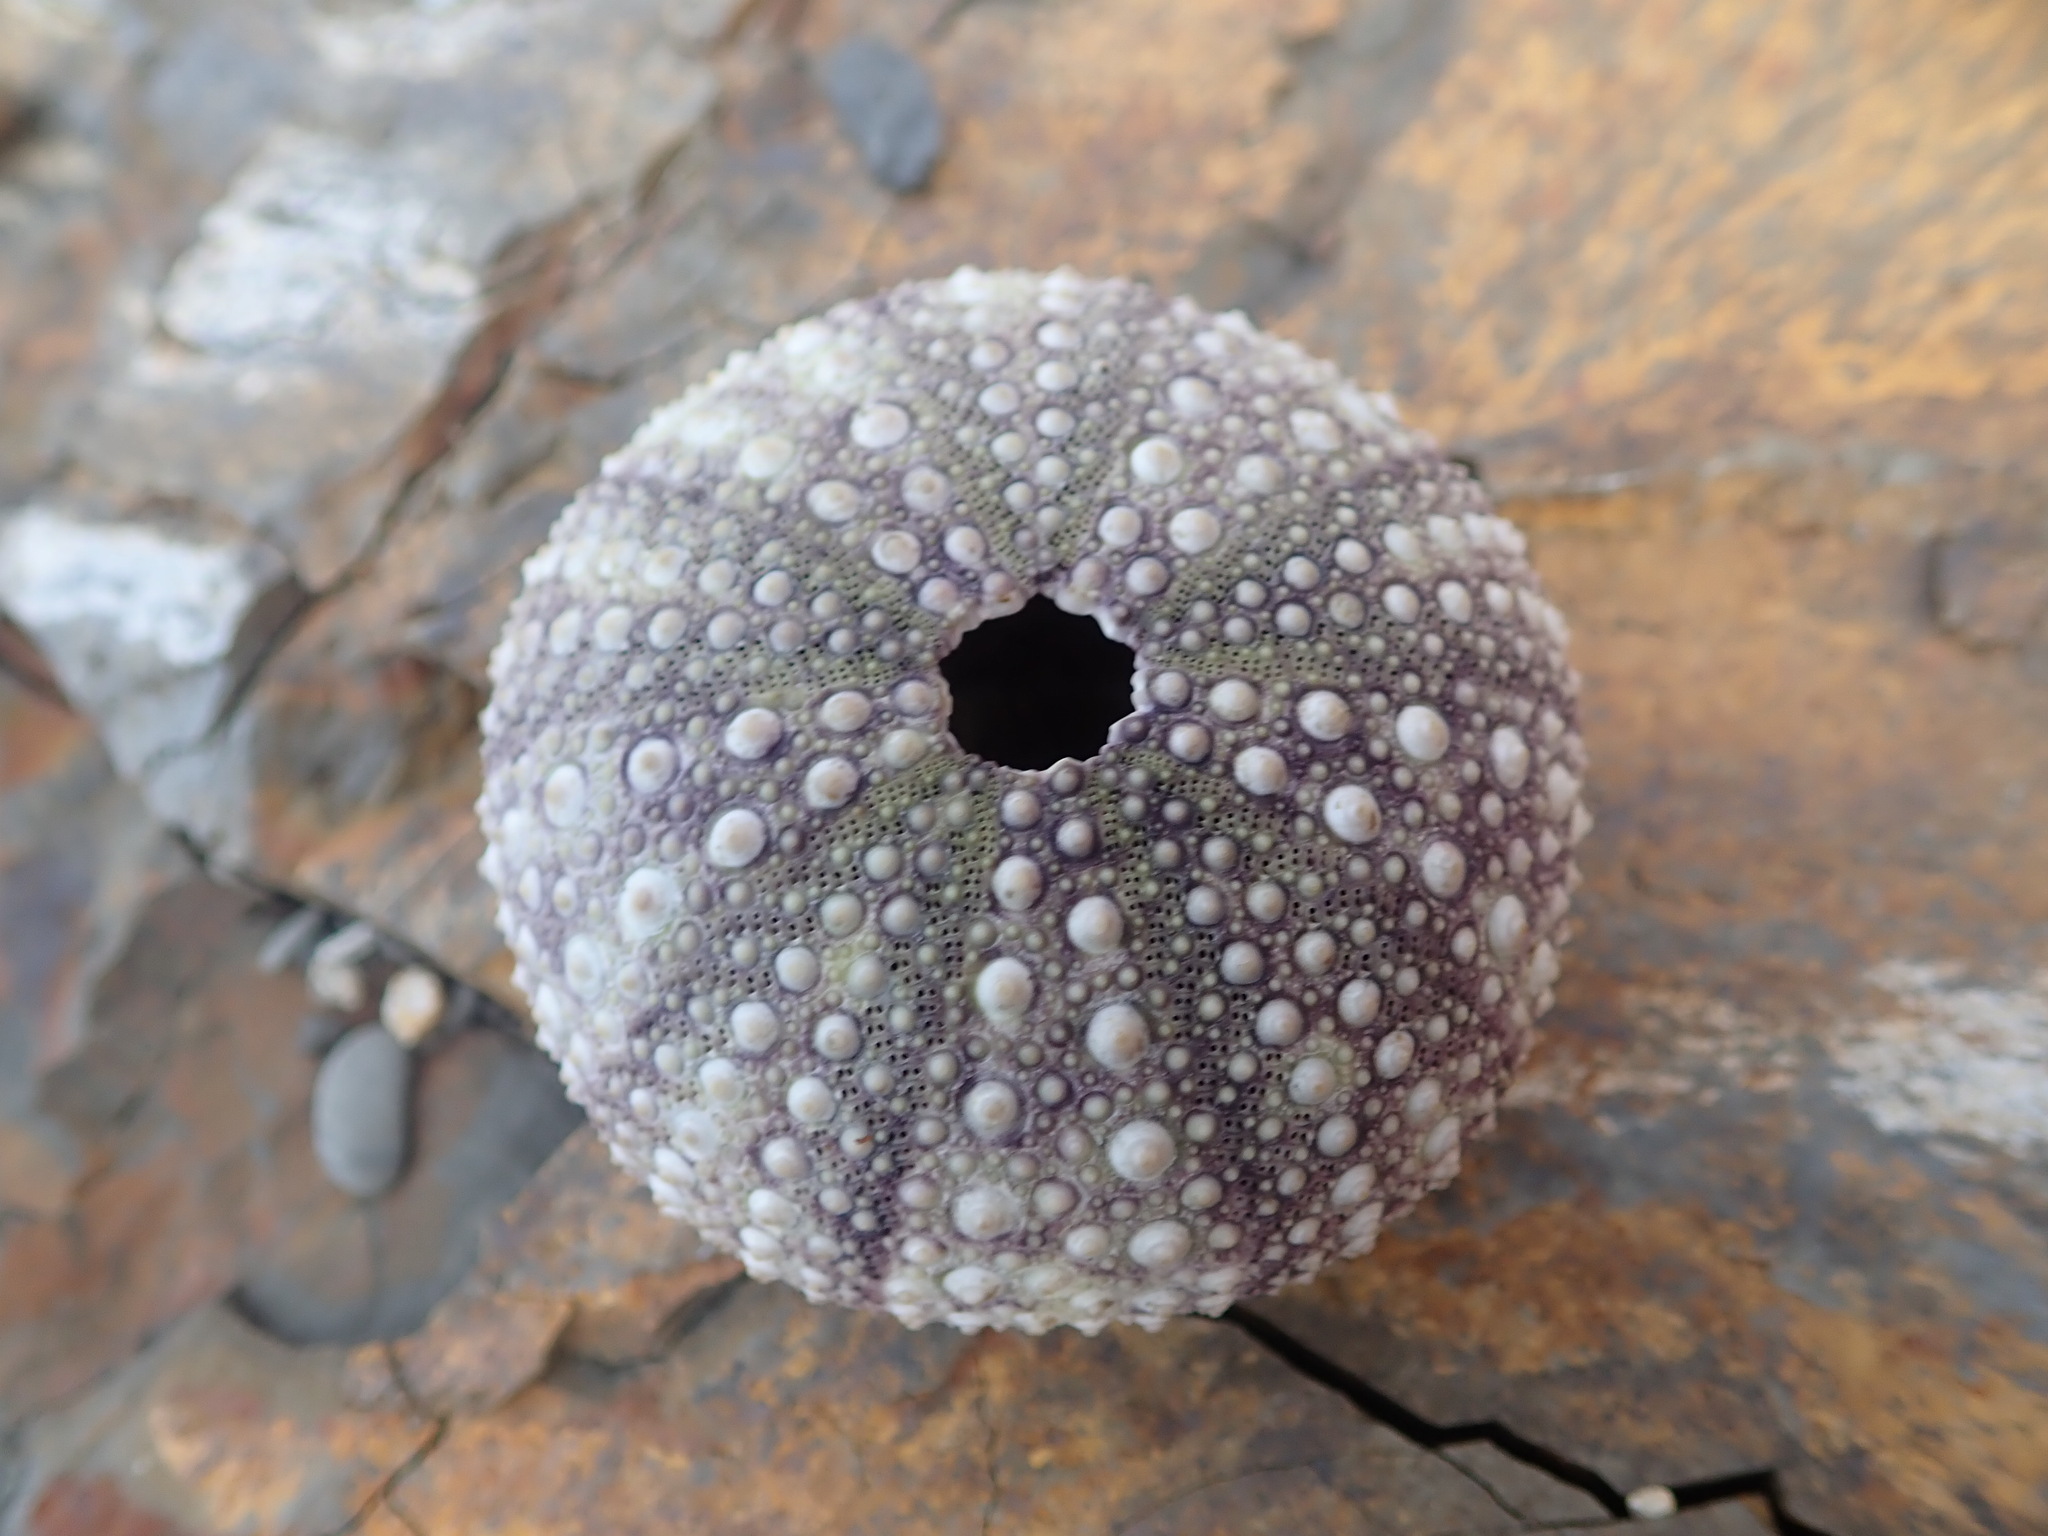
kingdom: Animalia
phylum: Echinodermata
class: Echinoidea
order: Camarodonta
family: Strongylocentrotidae
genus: Strongylocentrotus
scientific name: Strongylocentrotus purpuratus
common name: Purple sea urchin
